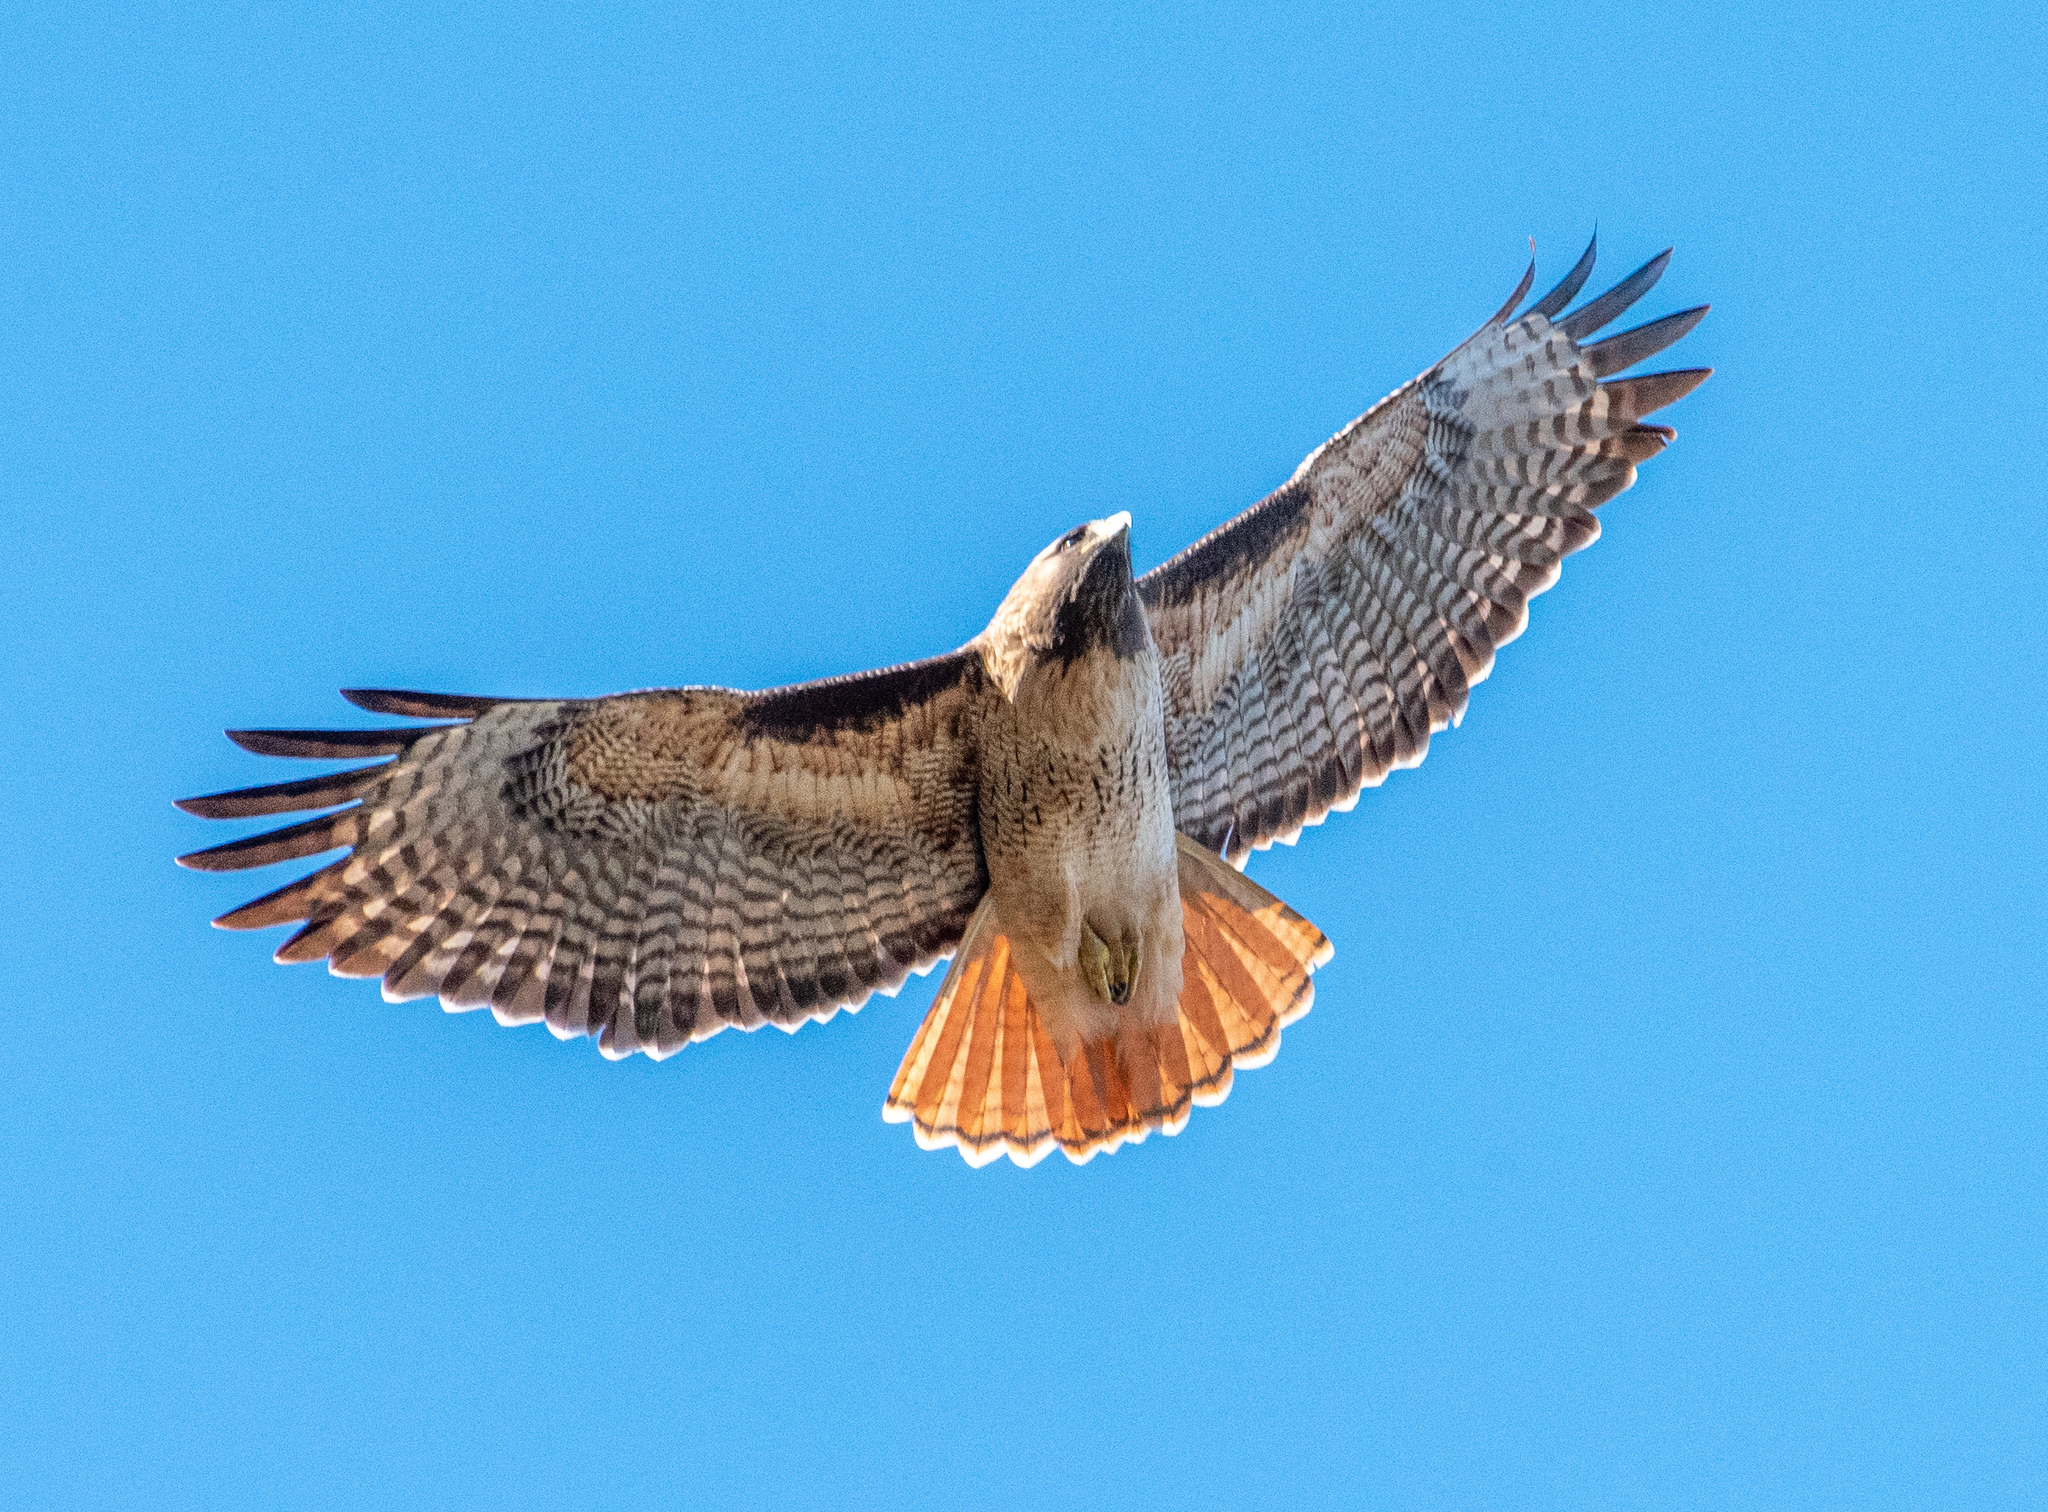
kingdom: Animalia
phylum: Chordata
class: Aves
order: Accipitriformes
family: Accipitridae
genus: Buteo
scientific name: Buteo jamaicensis
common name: Red-tailed hawk
